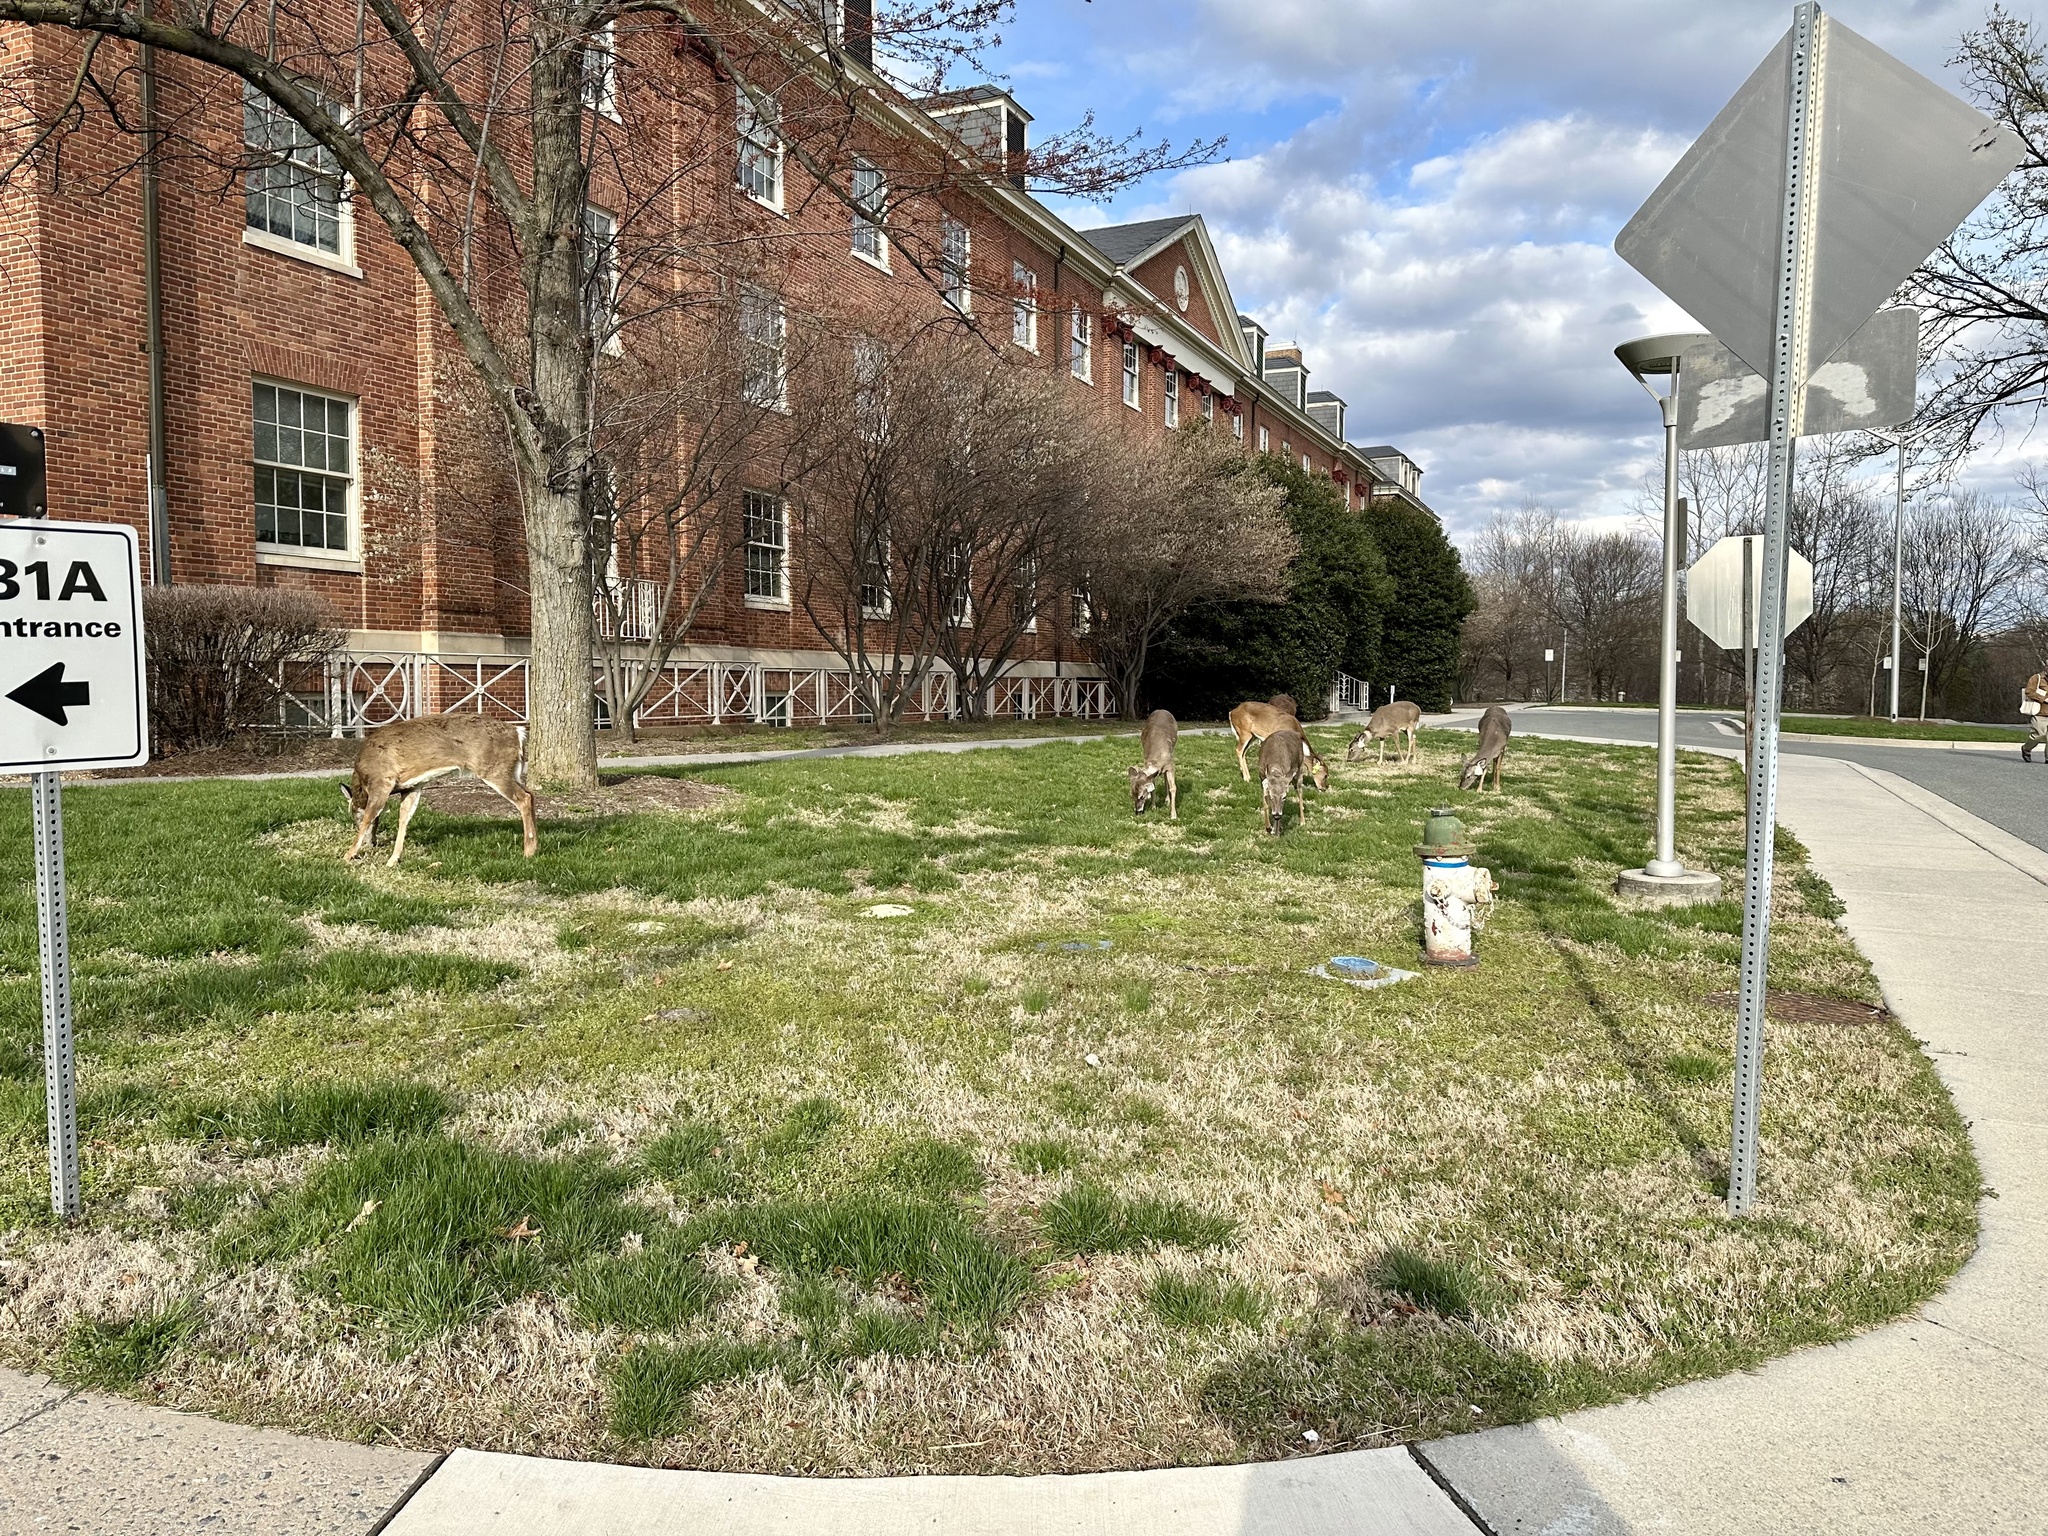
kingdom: Animalia
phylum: Chordata
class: Mammalia
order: Artiodactyla
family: Cervidae
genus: Odocoileus
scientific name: Odocoileus virginianus
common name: White-tailed deer
